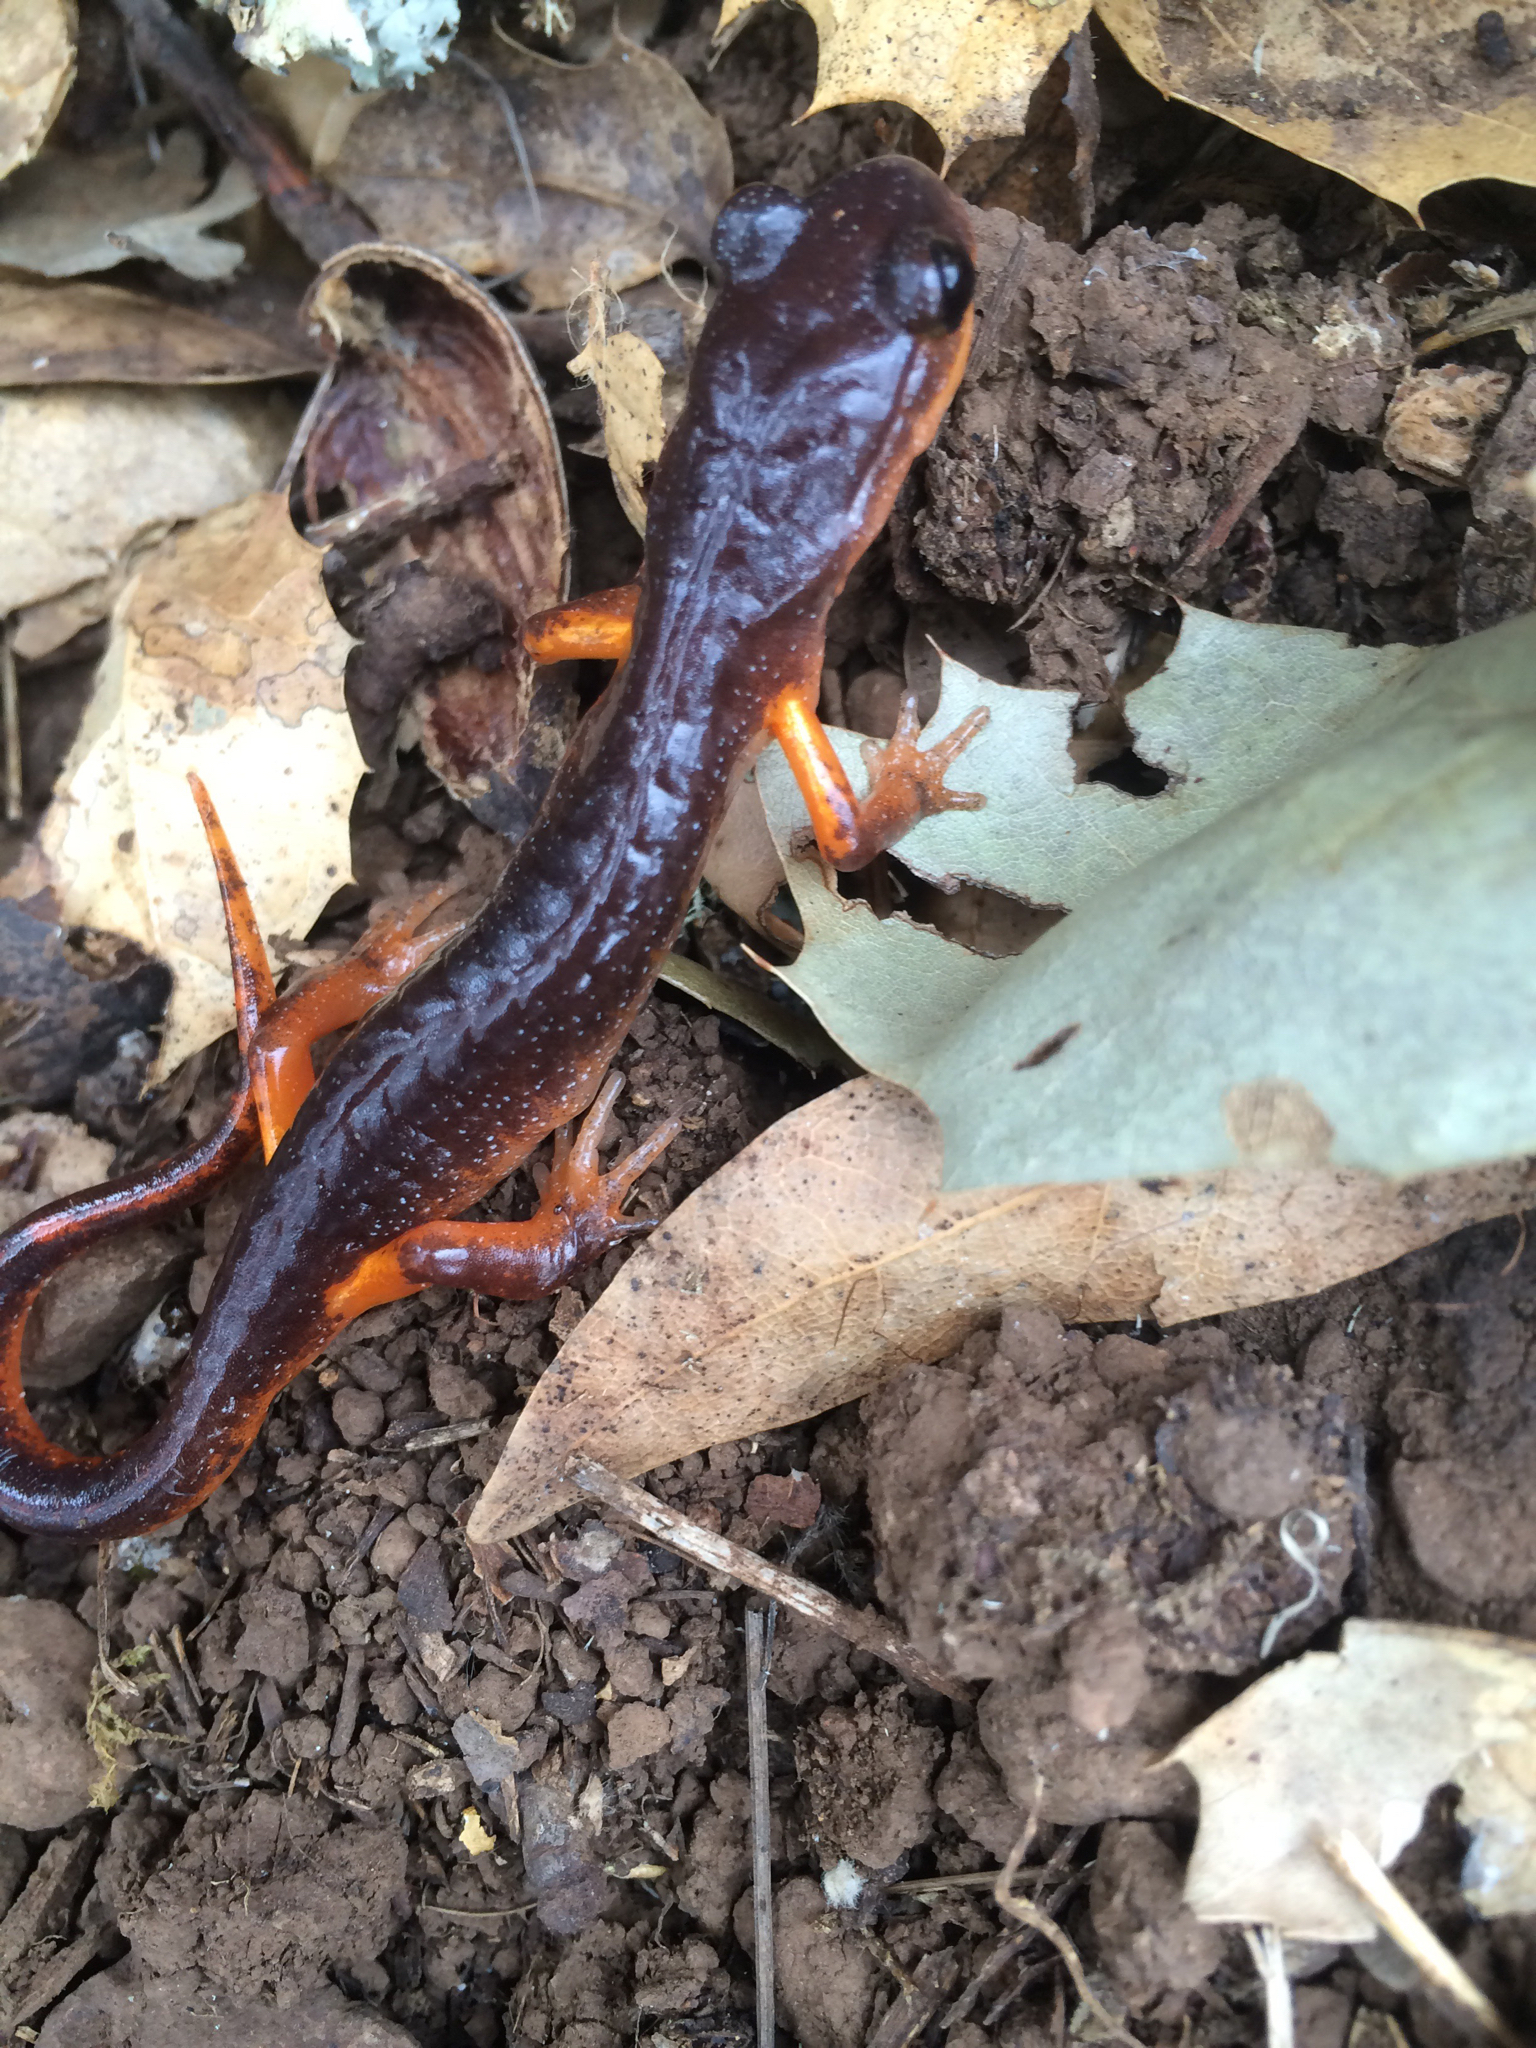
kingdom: Animalia
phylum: Chordata
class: Amphibia
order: Caudata
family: Plethodontidae
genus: Ensatina
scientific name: Ensatina eschscholtzii
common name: Ensatina
